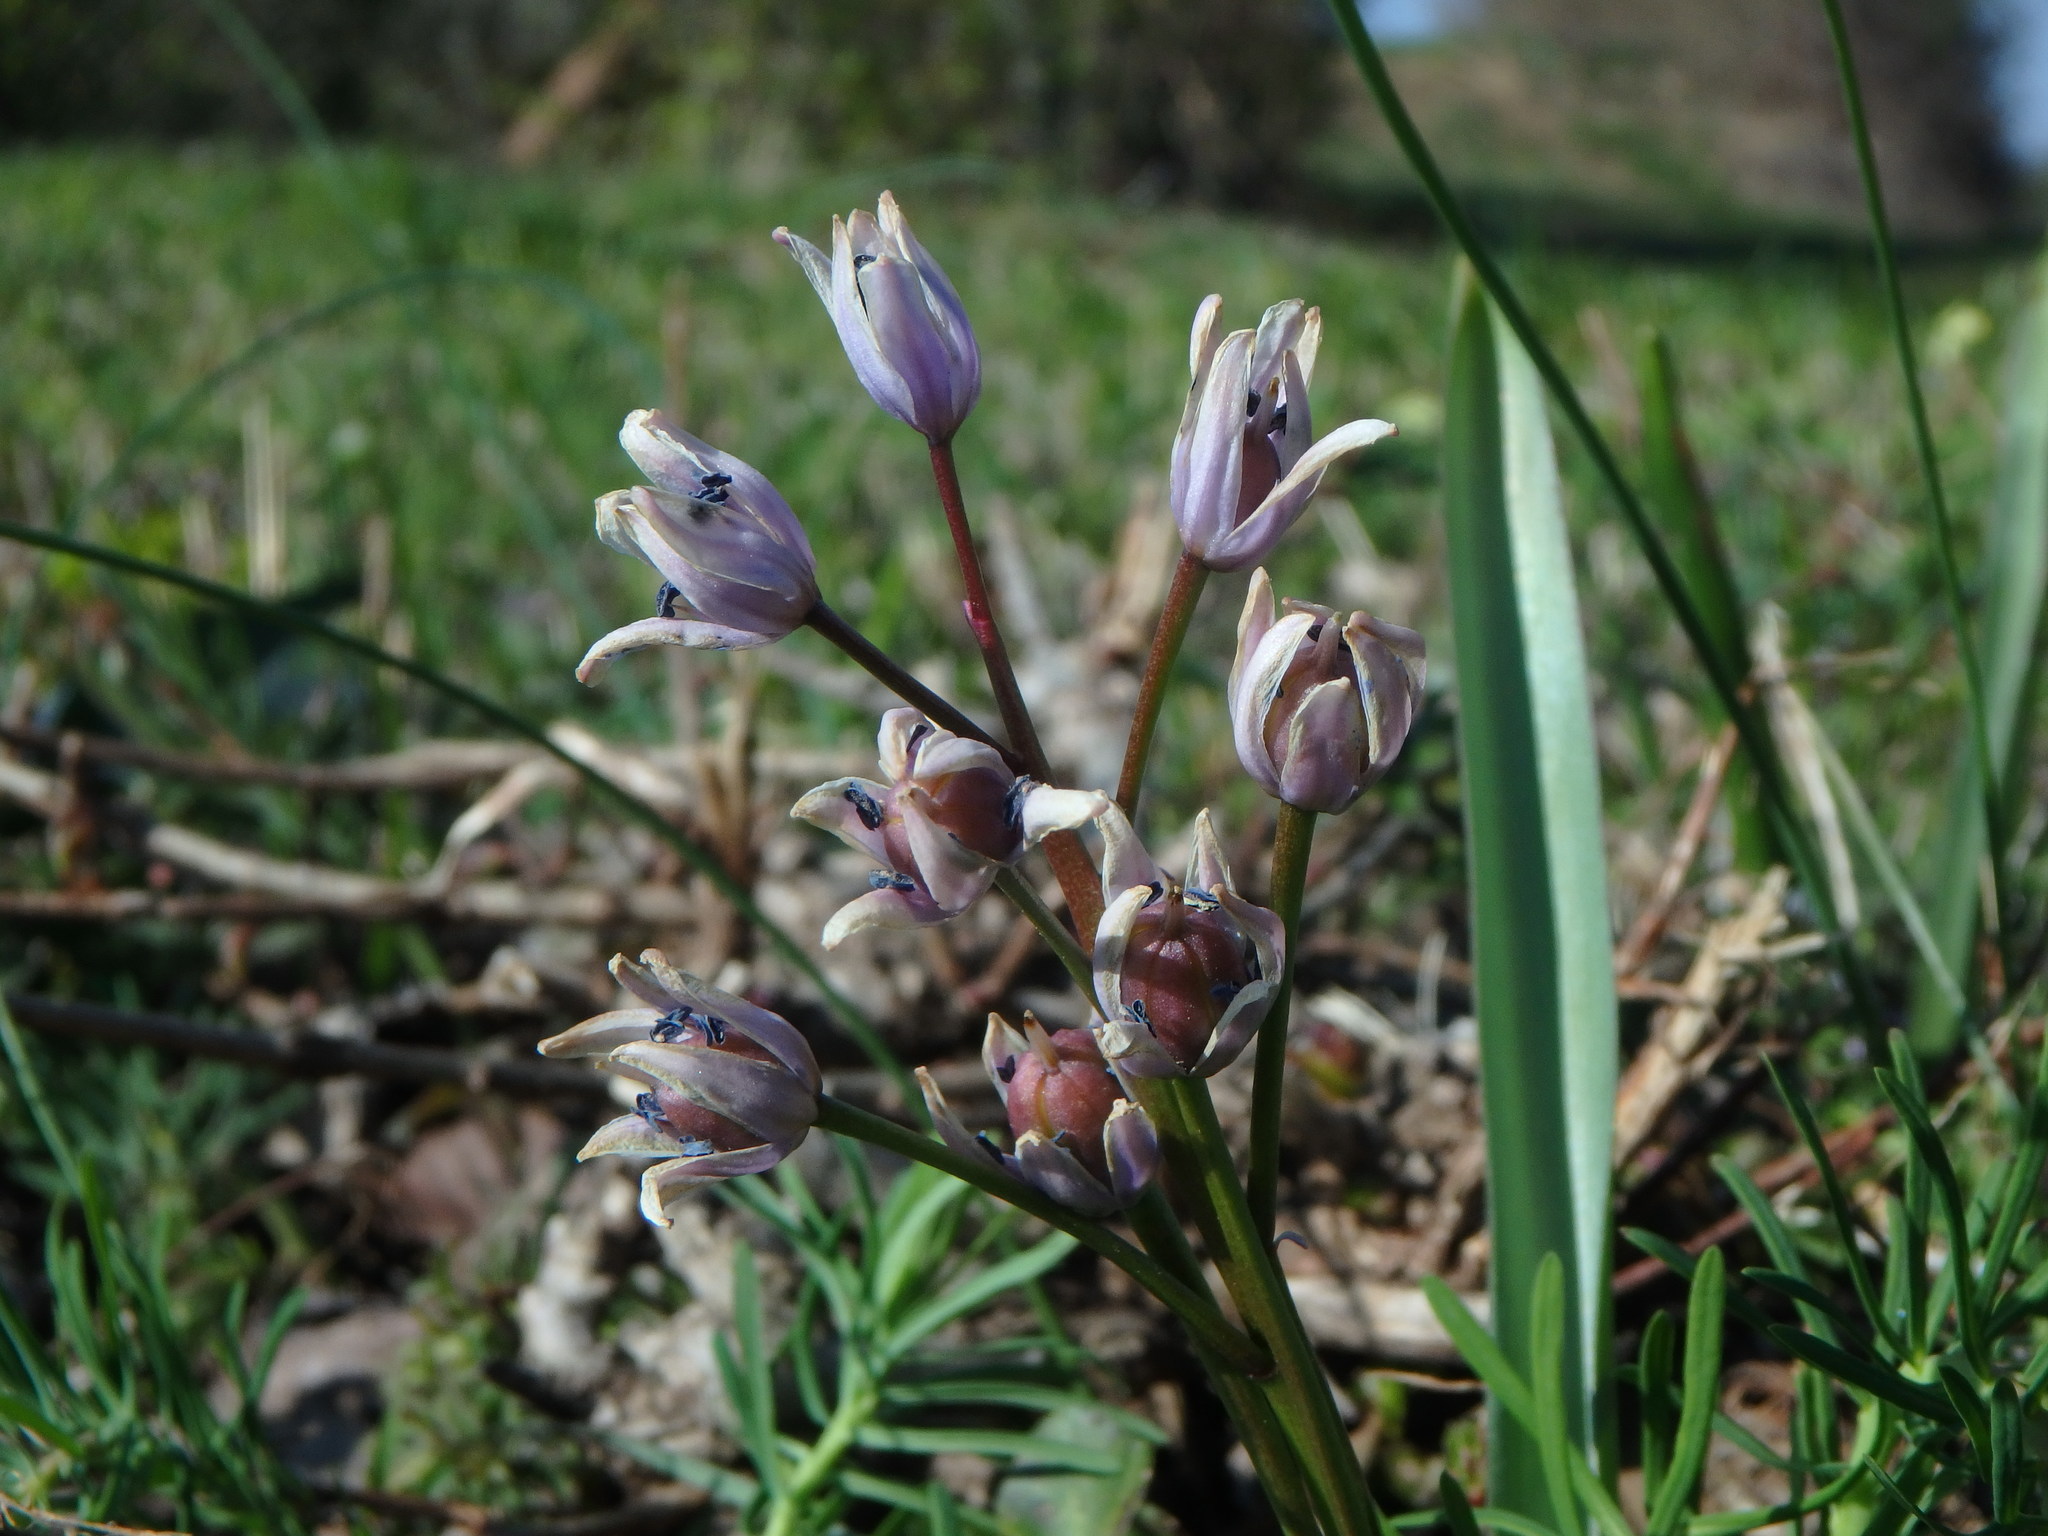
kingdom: Plantae
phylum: Tracheophyta
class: Liliopsida
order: Asparagales
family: Asparagaceae
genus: Scilla
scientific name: Scilla bifolia
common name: Alpine squill
